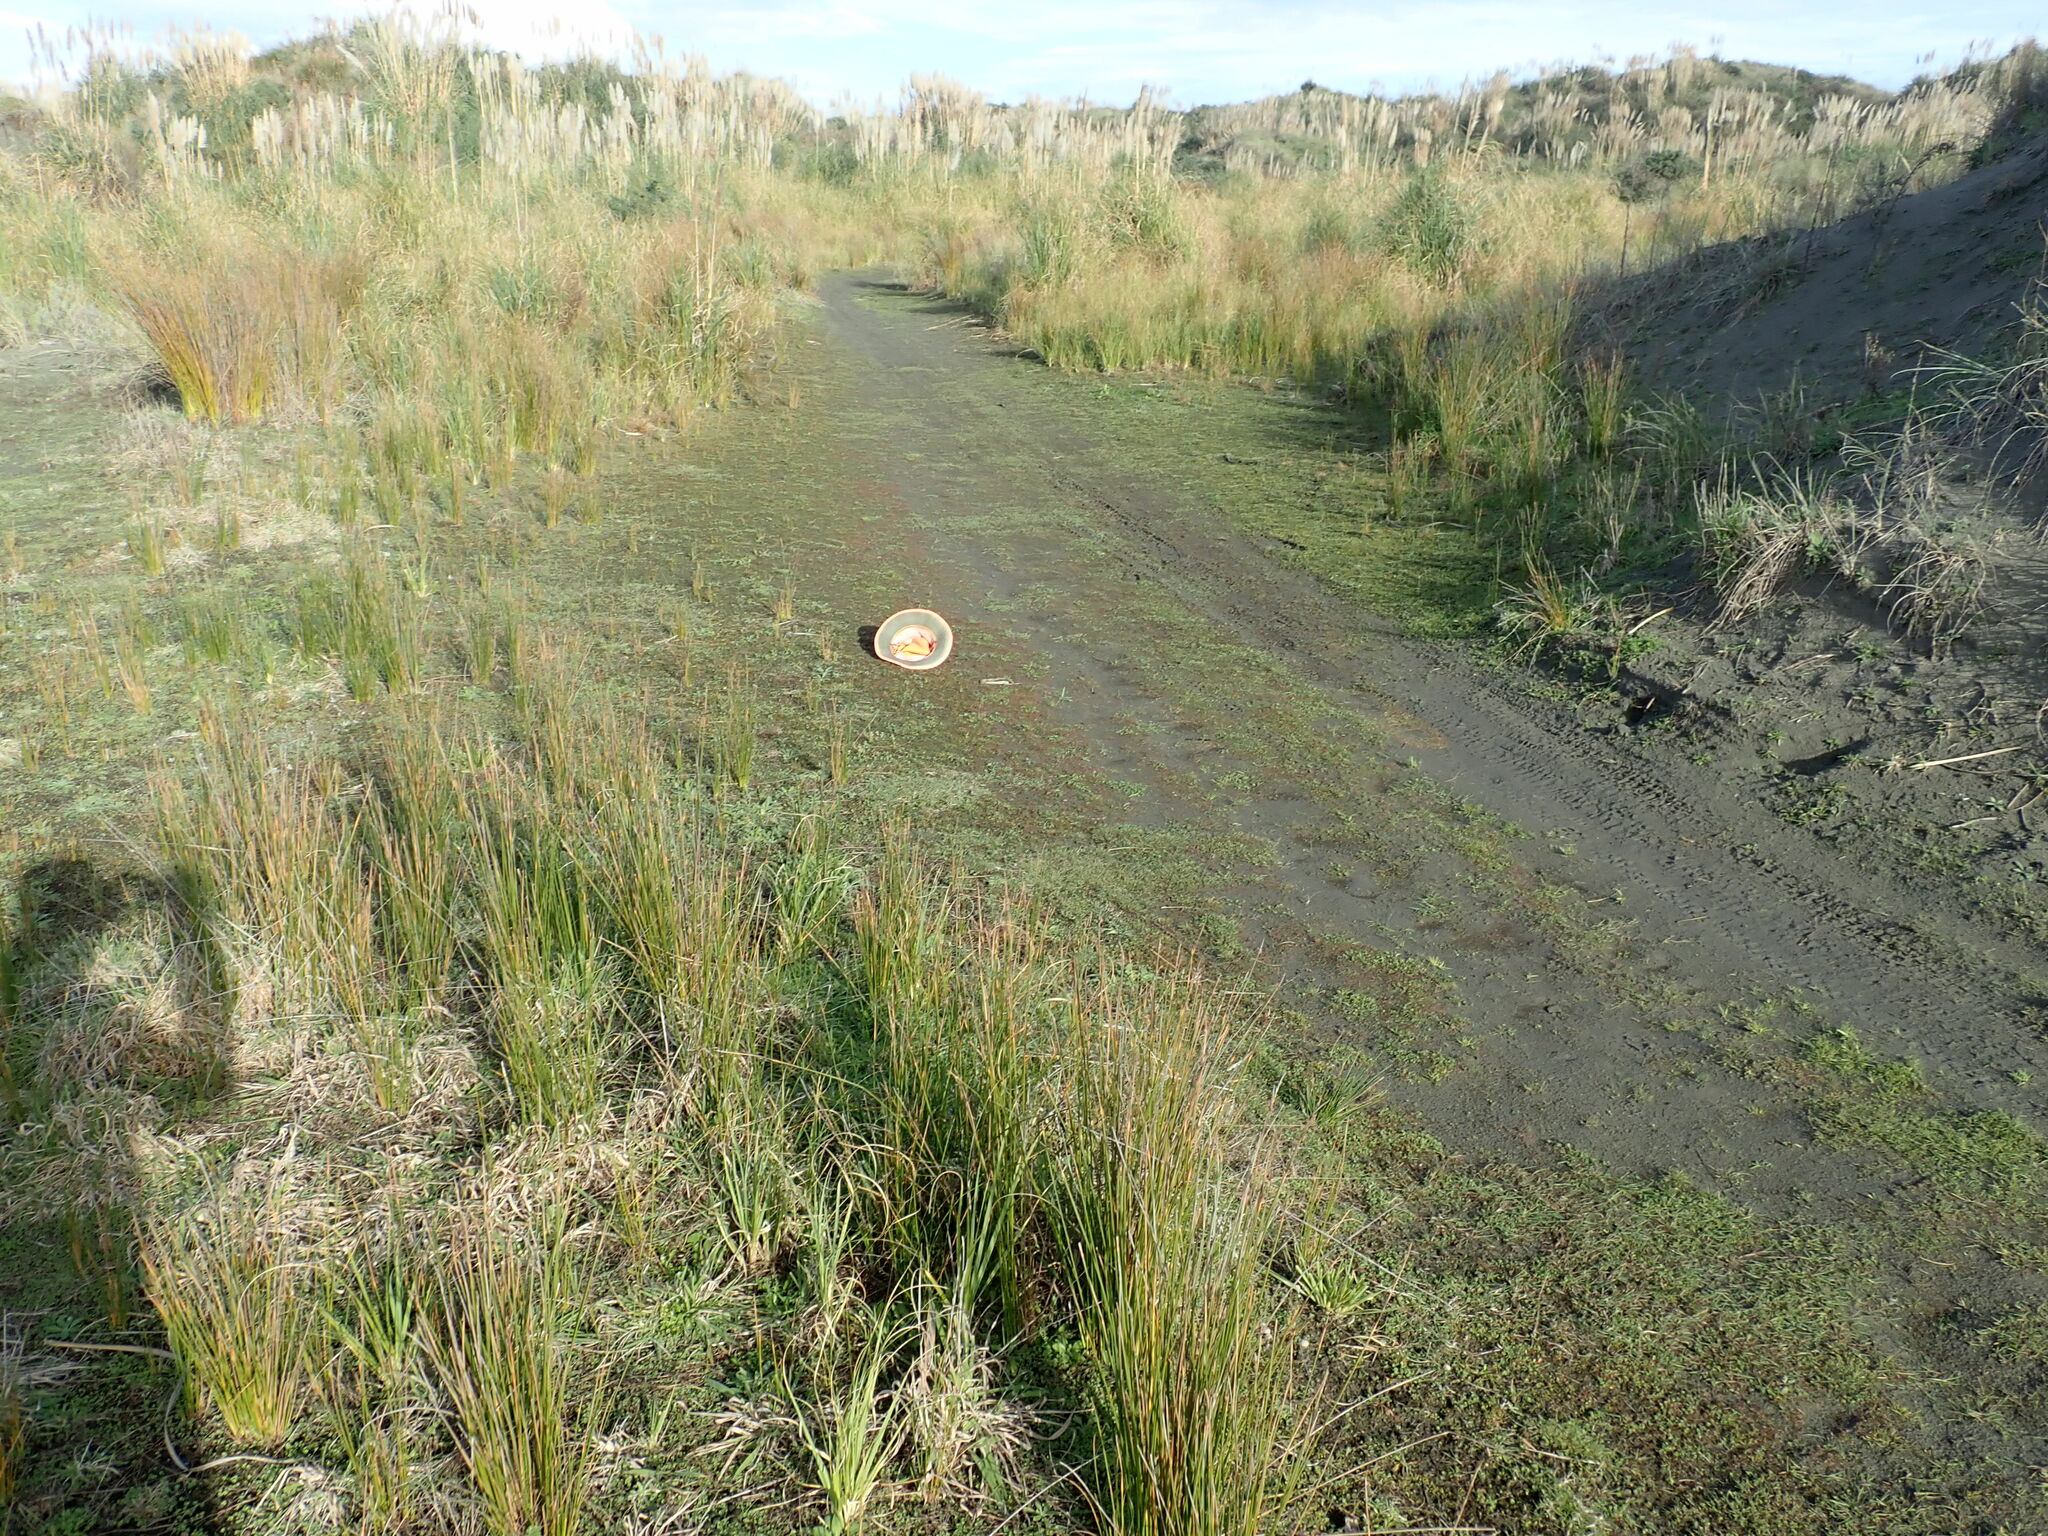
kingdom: Plantae
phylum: Tracheophyta
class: Magnoliopsida
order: Lamiales
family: Scrophulariaceae
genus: Limosella
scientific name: Limosella australis
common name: Welsh mudwort
